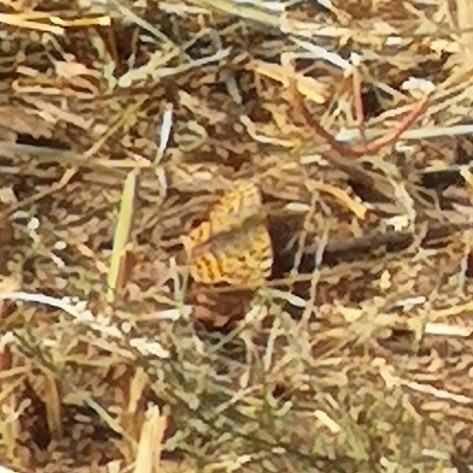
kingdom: Animalia
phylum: Arthropoda
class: Insecta
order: Lepidoptera
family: Nymphalidae
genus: Issoria
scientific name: Issoria lathonia
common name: Queen of spain fritillary
